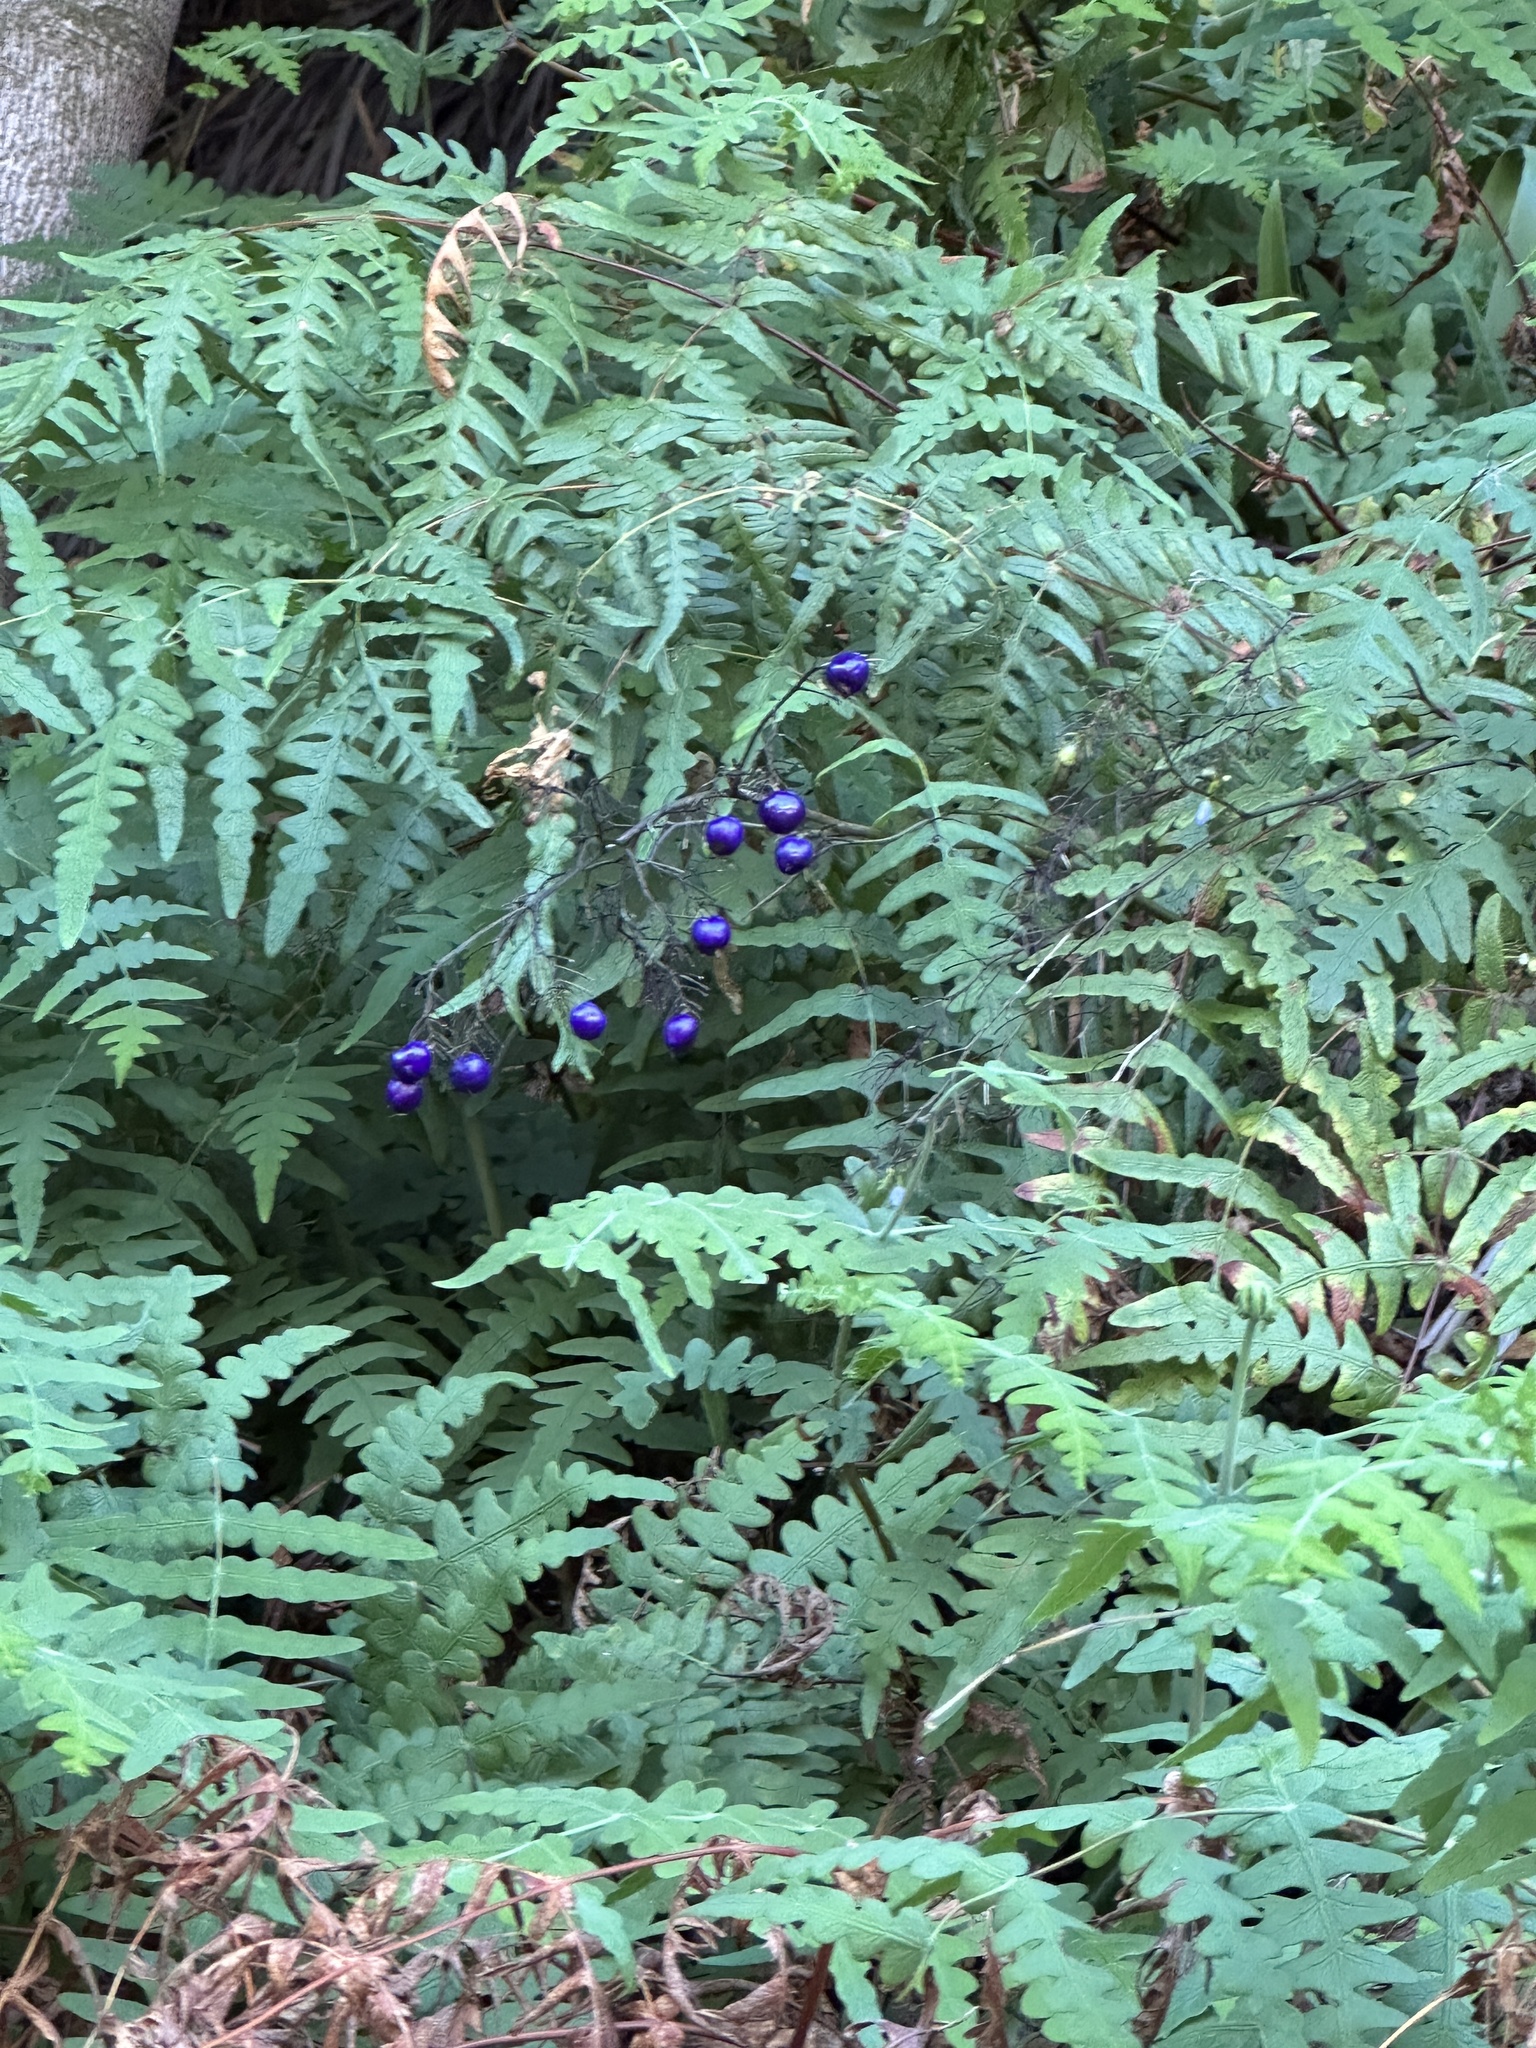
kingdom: Plantae
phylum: Tracheophyta
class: Liliopsida
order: Asparagales
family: Asphodelaceae
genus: Dianella
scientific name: Dianella ensifolia
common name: New zealand lilyplant
